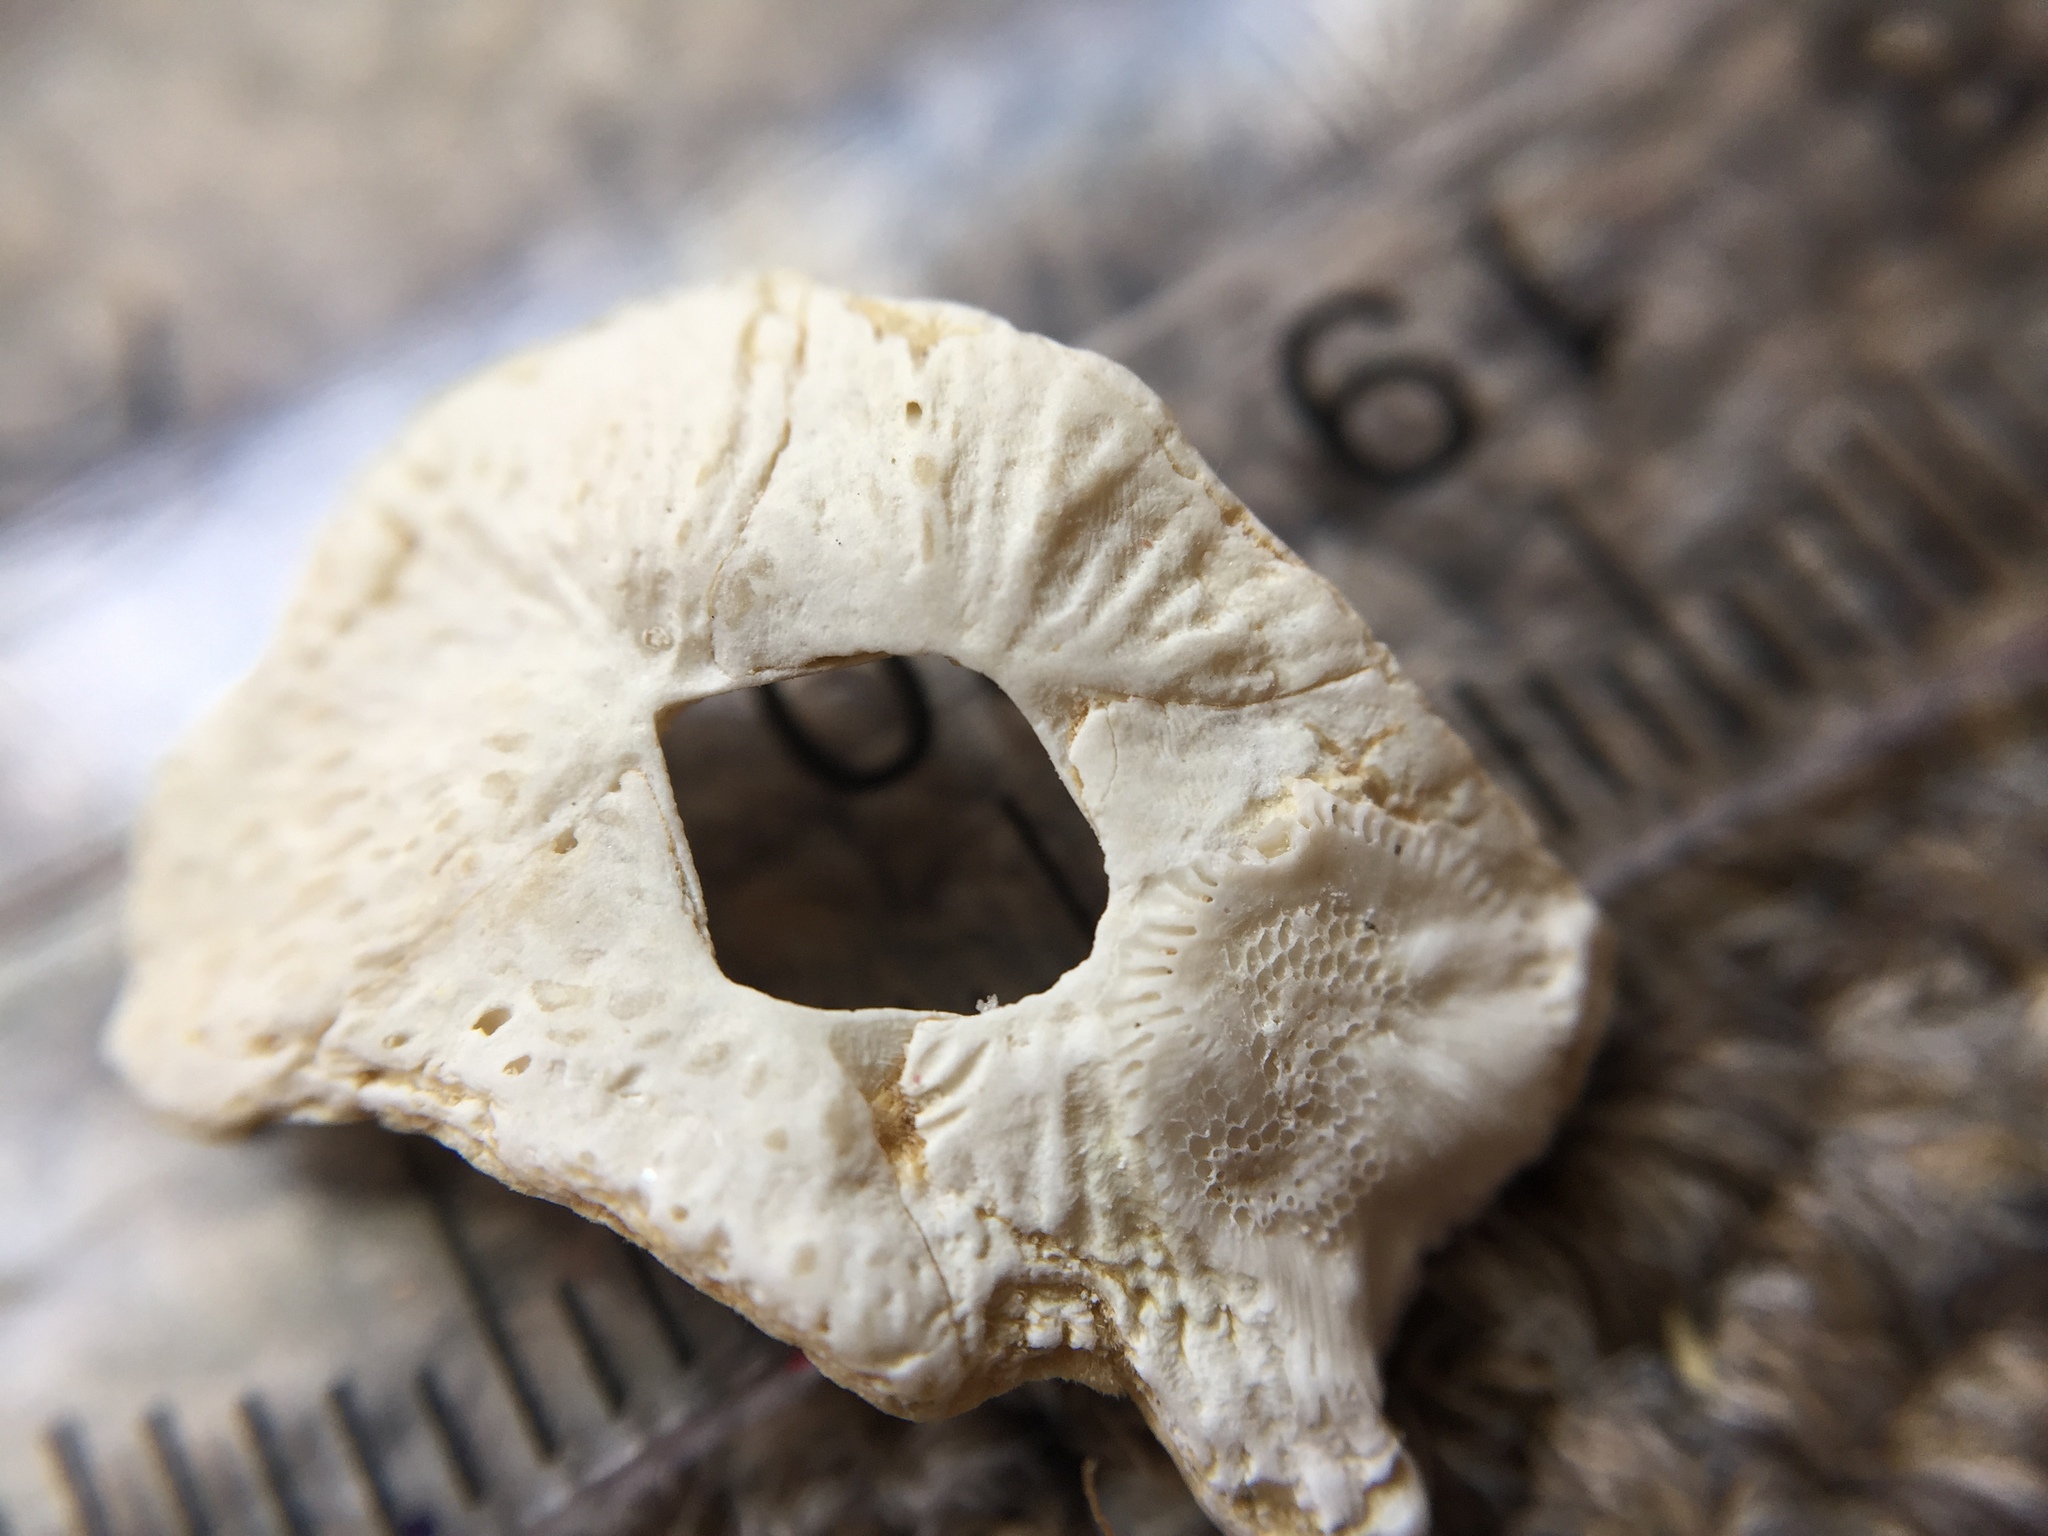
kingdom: Animalia
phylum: Arthropoda
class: Maxillopoda
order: Sessilia
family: Tetraclitidae
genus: Tetraclitella
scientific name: Tetraclitella depressa
